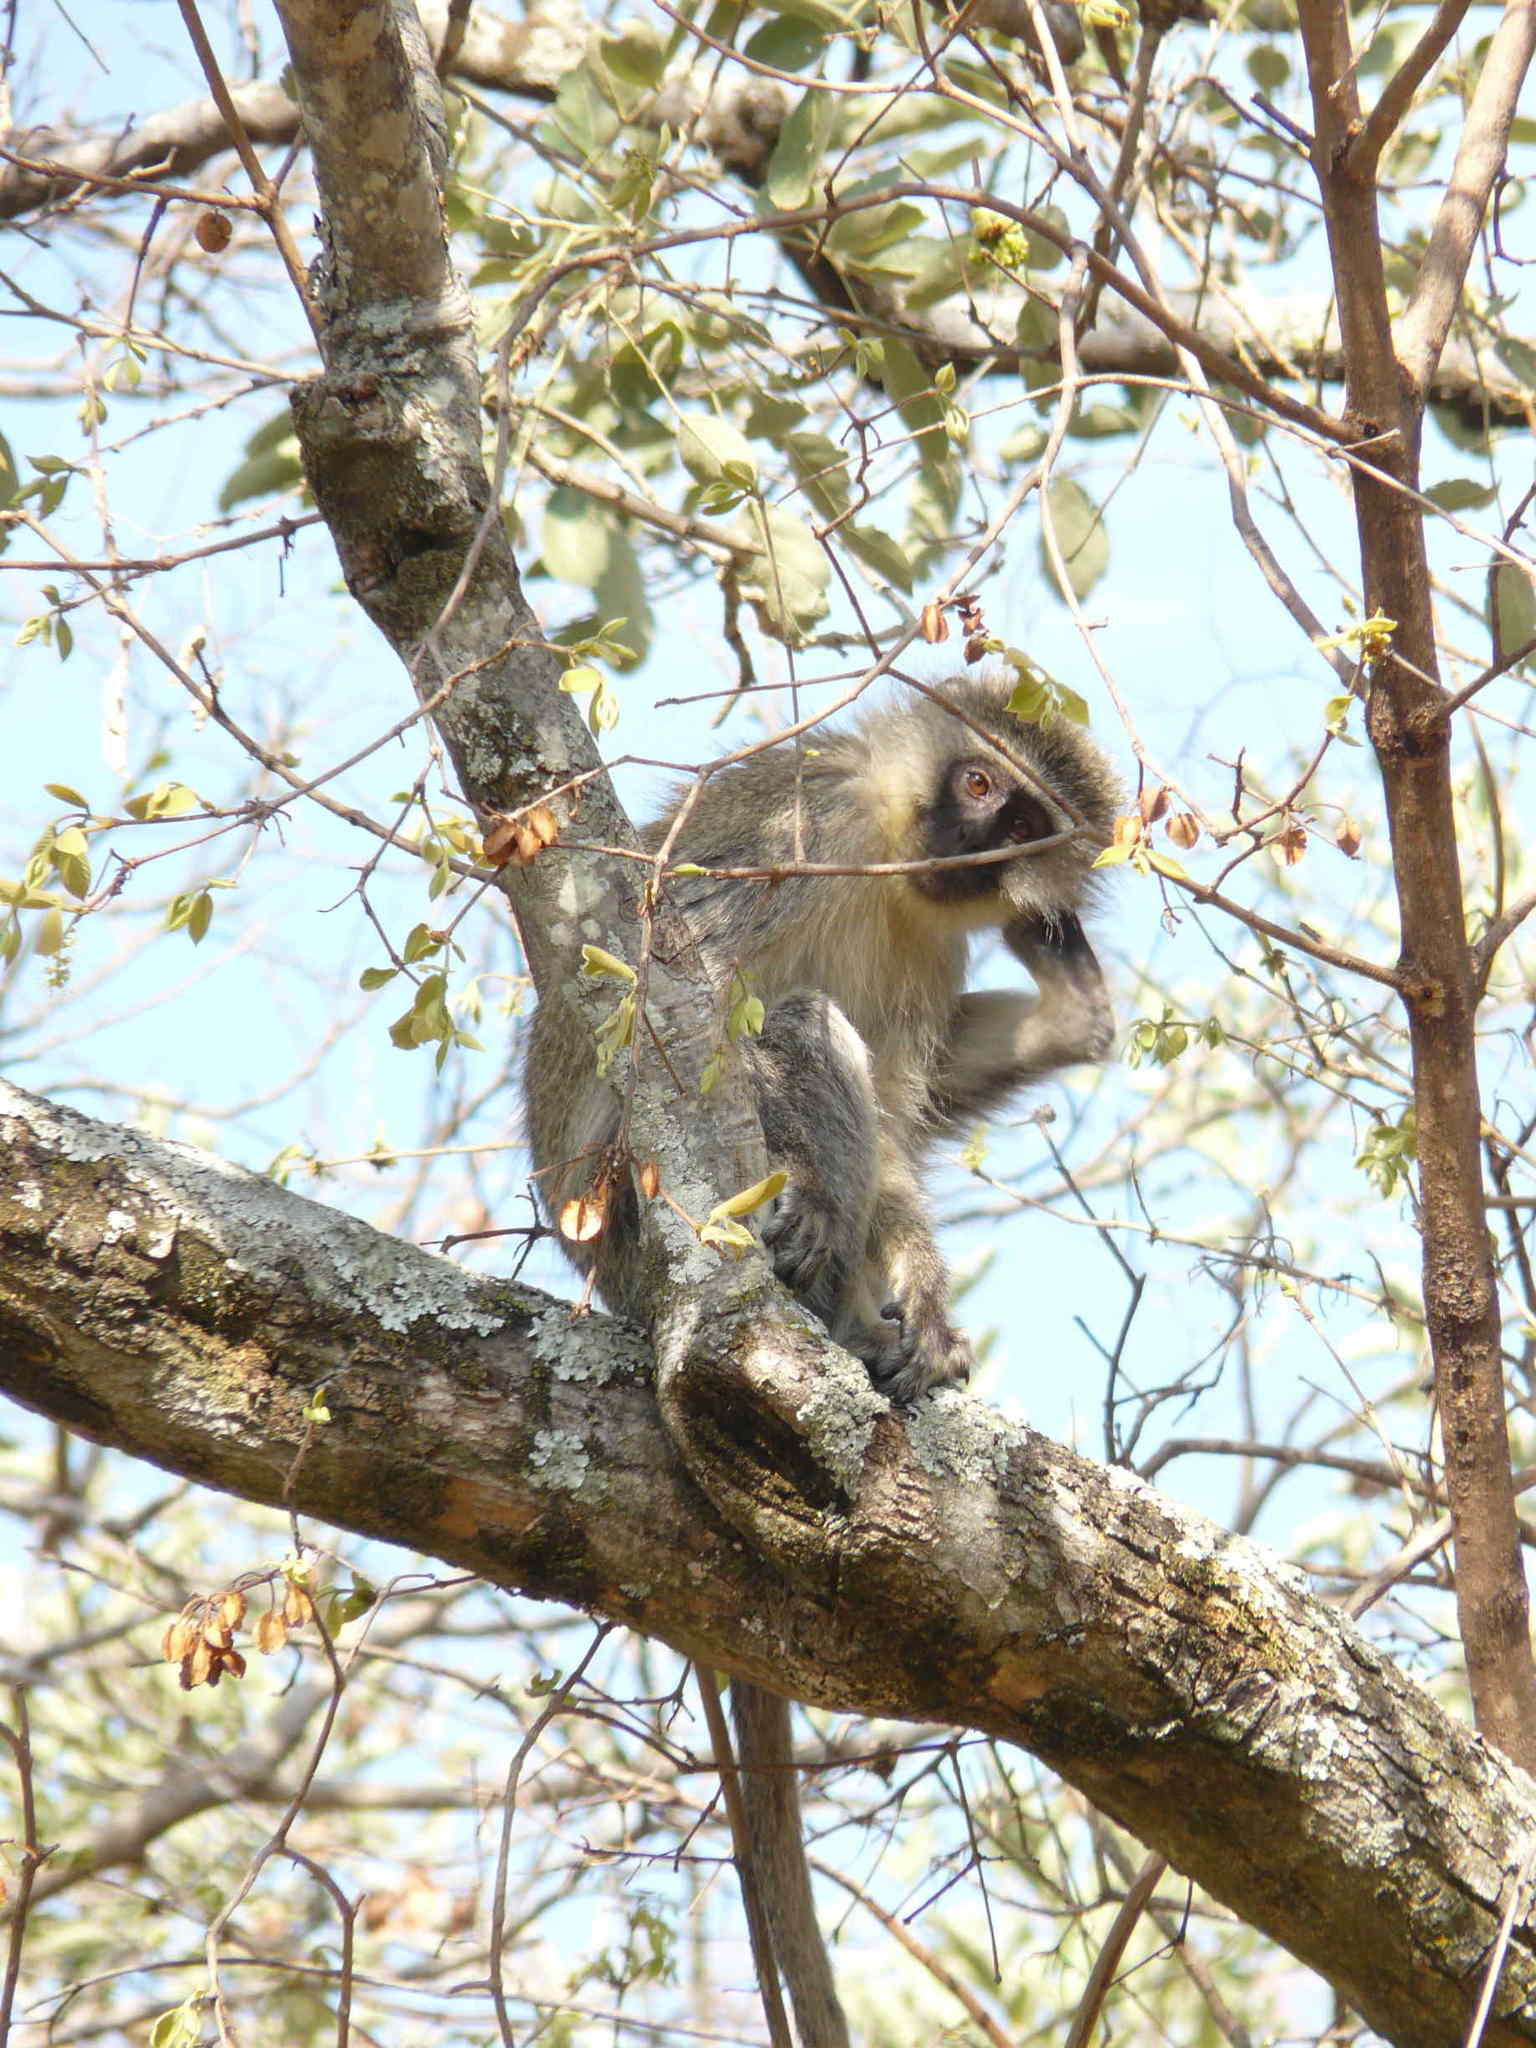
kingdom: Animalia
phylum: Chordata
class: Mammalia
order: Primates
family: Cercopithecidae
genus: Chlorocebus
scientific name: Chlorocebus pygerythrus
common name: Vervet monkey
